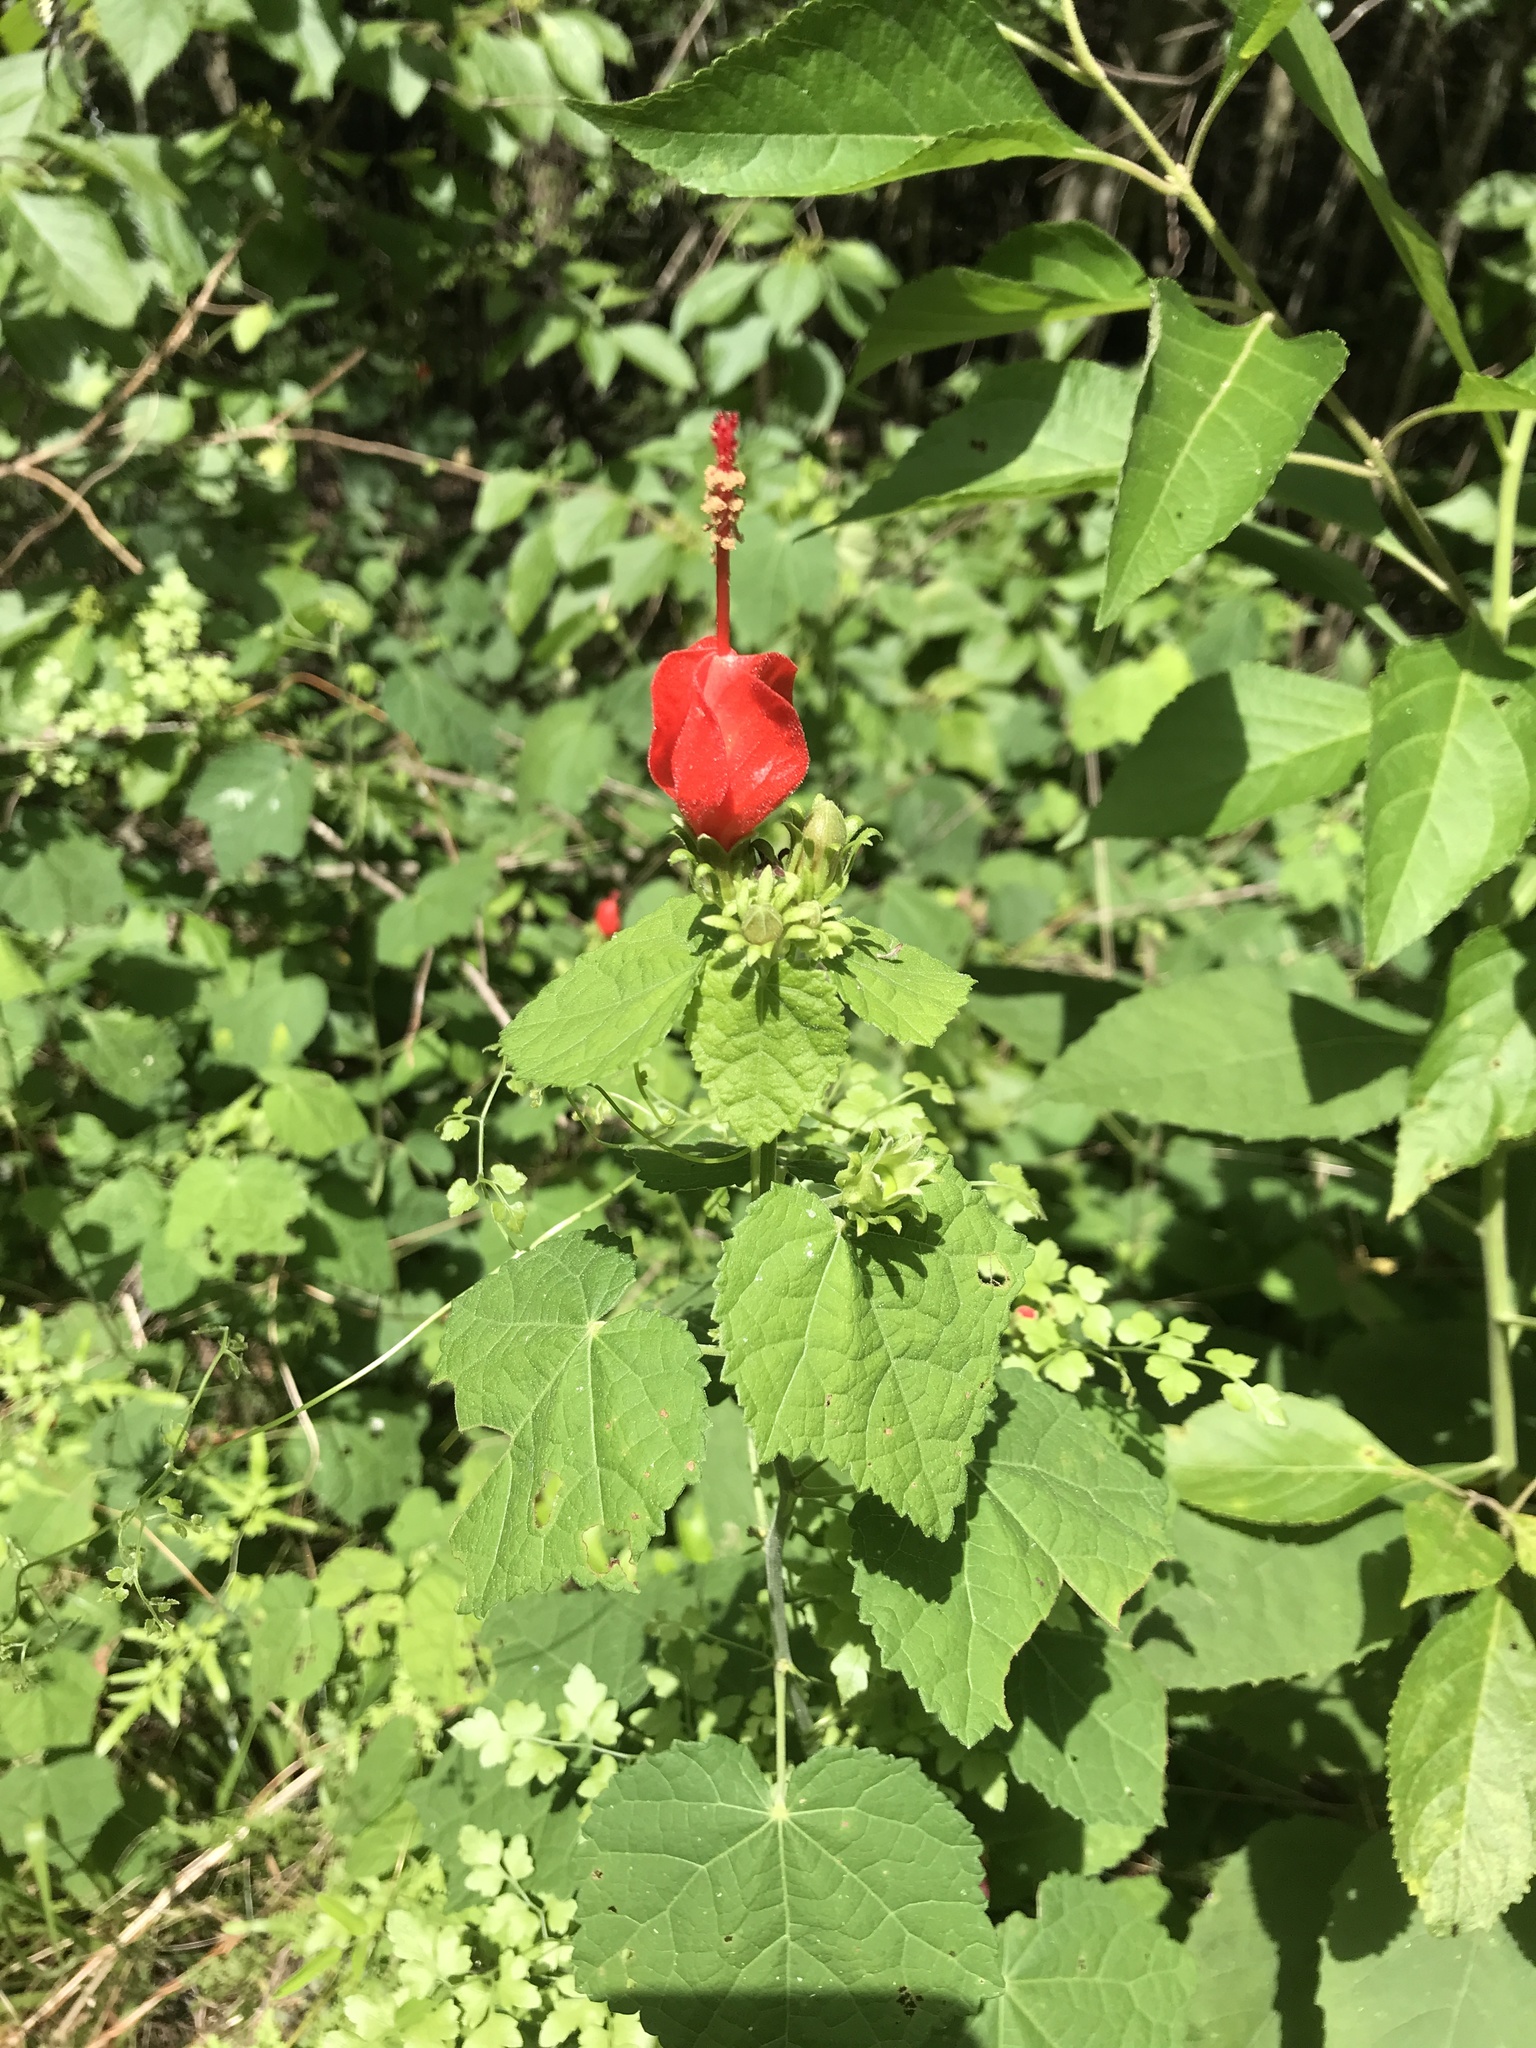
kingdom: Plantae
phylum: Tracheophyta
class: Magnoliopsida
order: Malvales
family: Malvaceae
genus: Malvaviscus
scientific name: Malvaviscus arboreus
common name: Wax mallow
